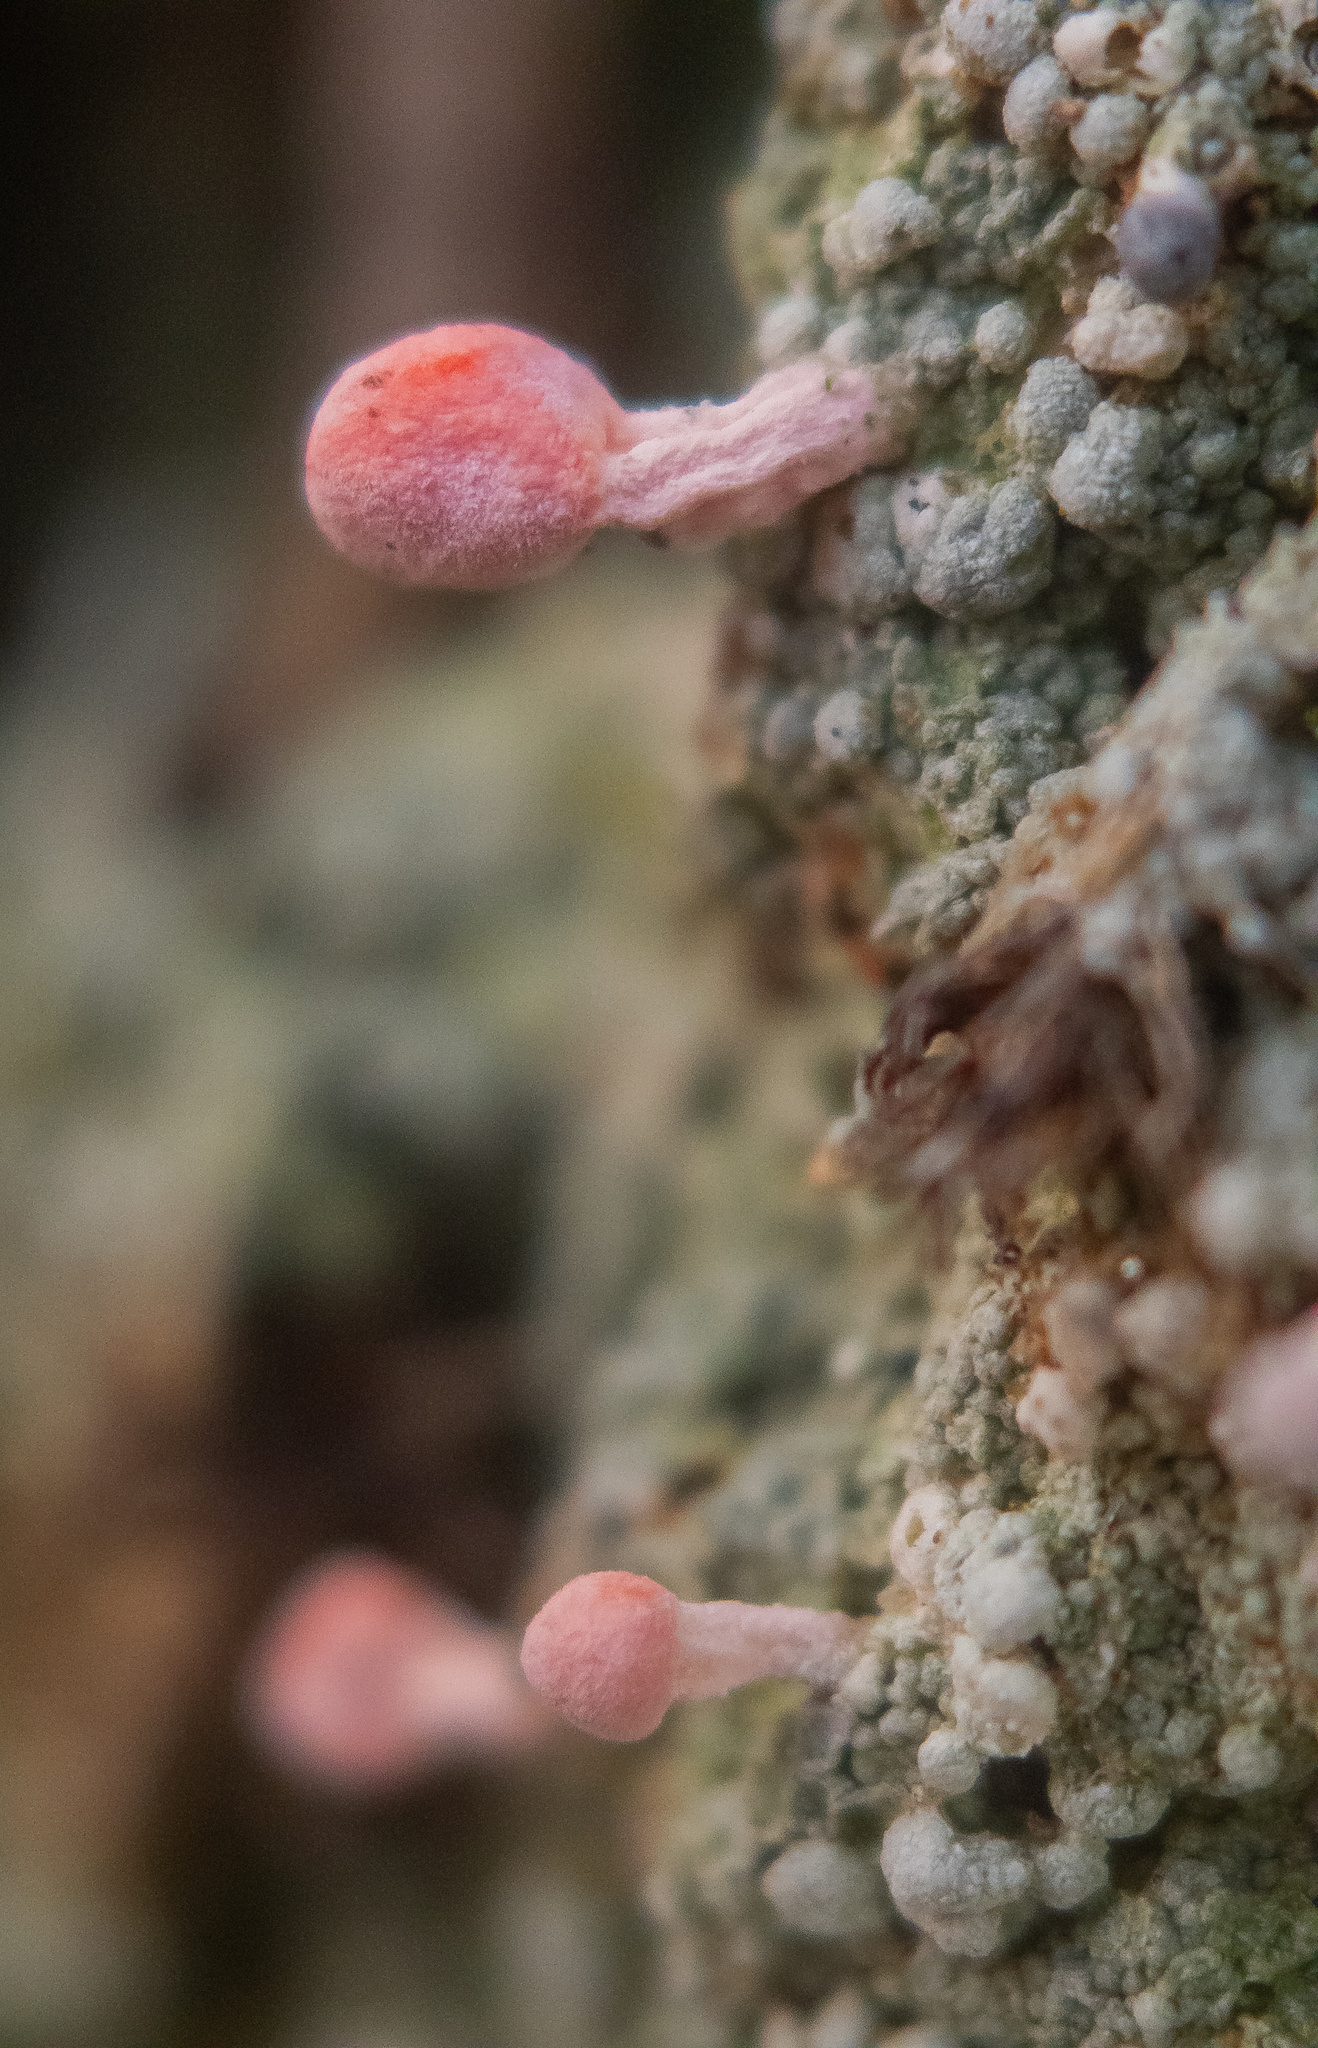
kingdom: Fungi
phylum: Ascomycota
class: Lecanoromycetes
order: Pertusariales
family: Icmadophilaceae
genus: Dibaeis
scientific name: Dibaeis baeomyces
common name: Pink earth lichen
